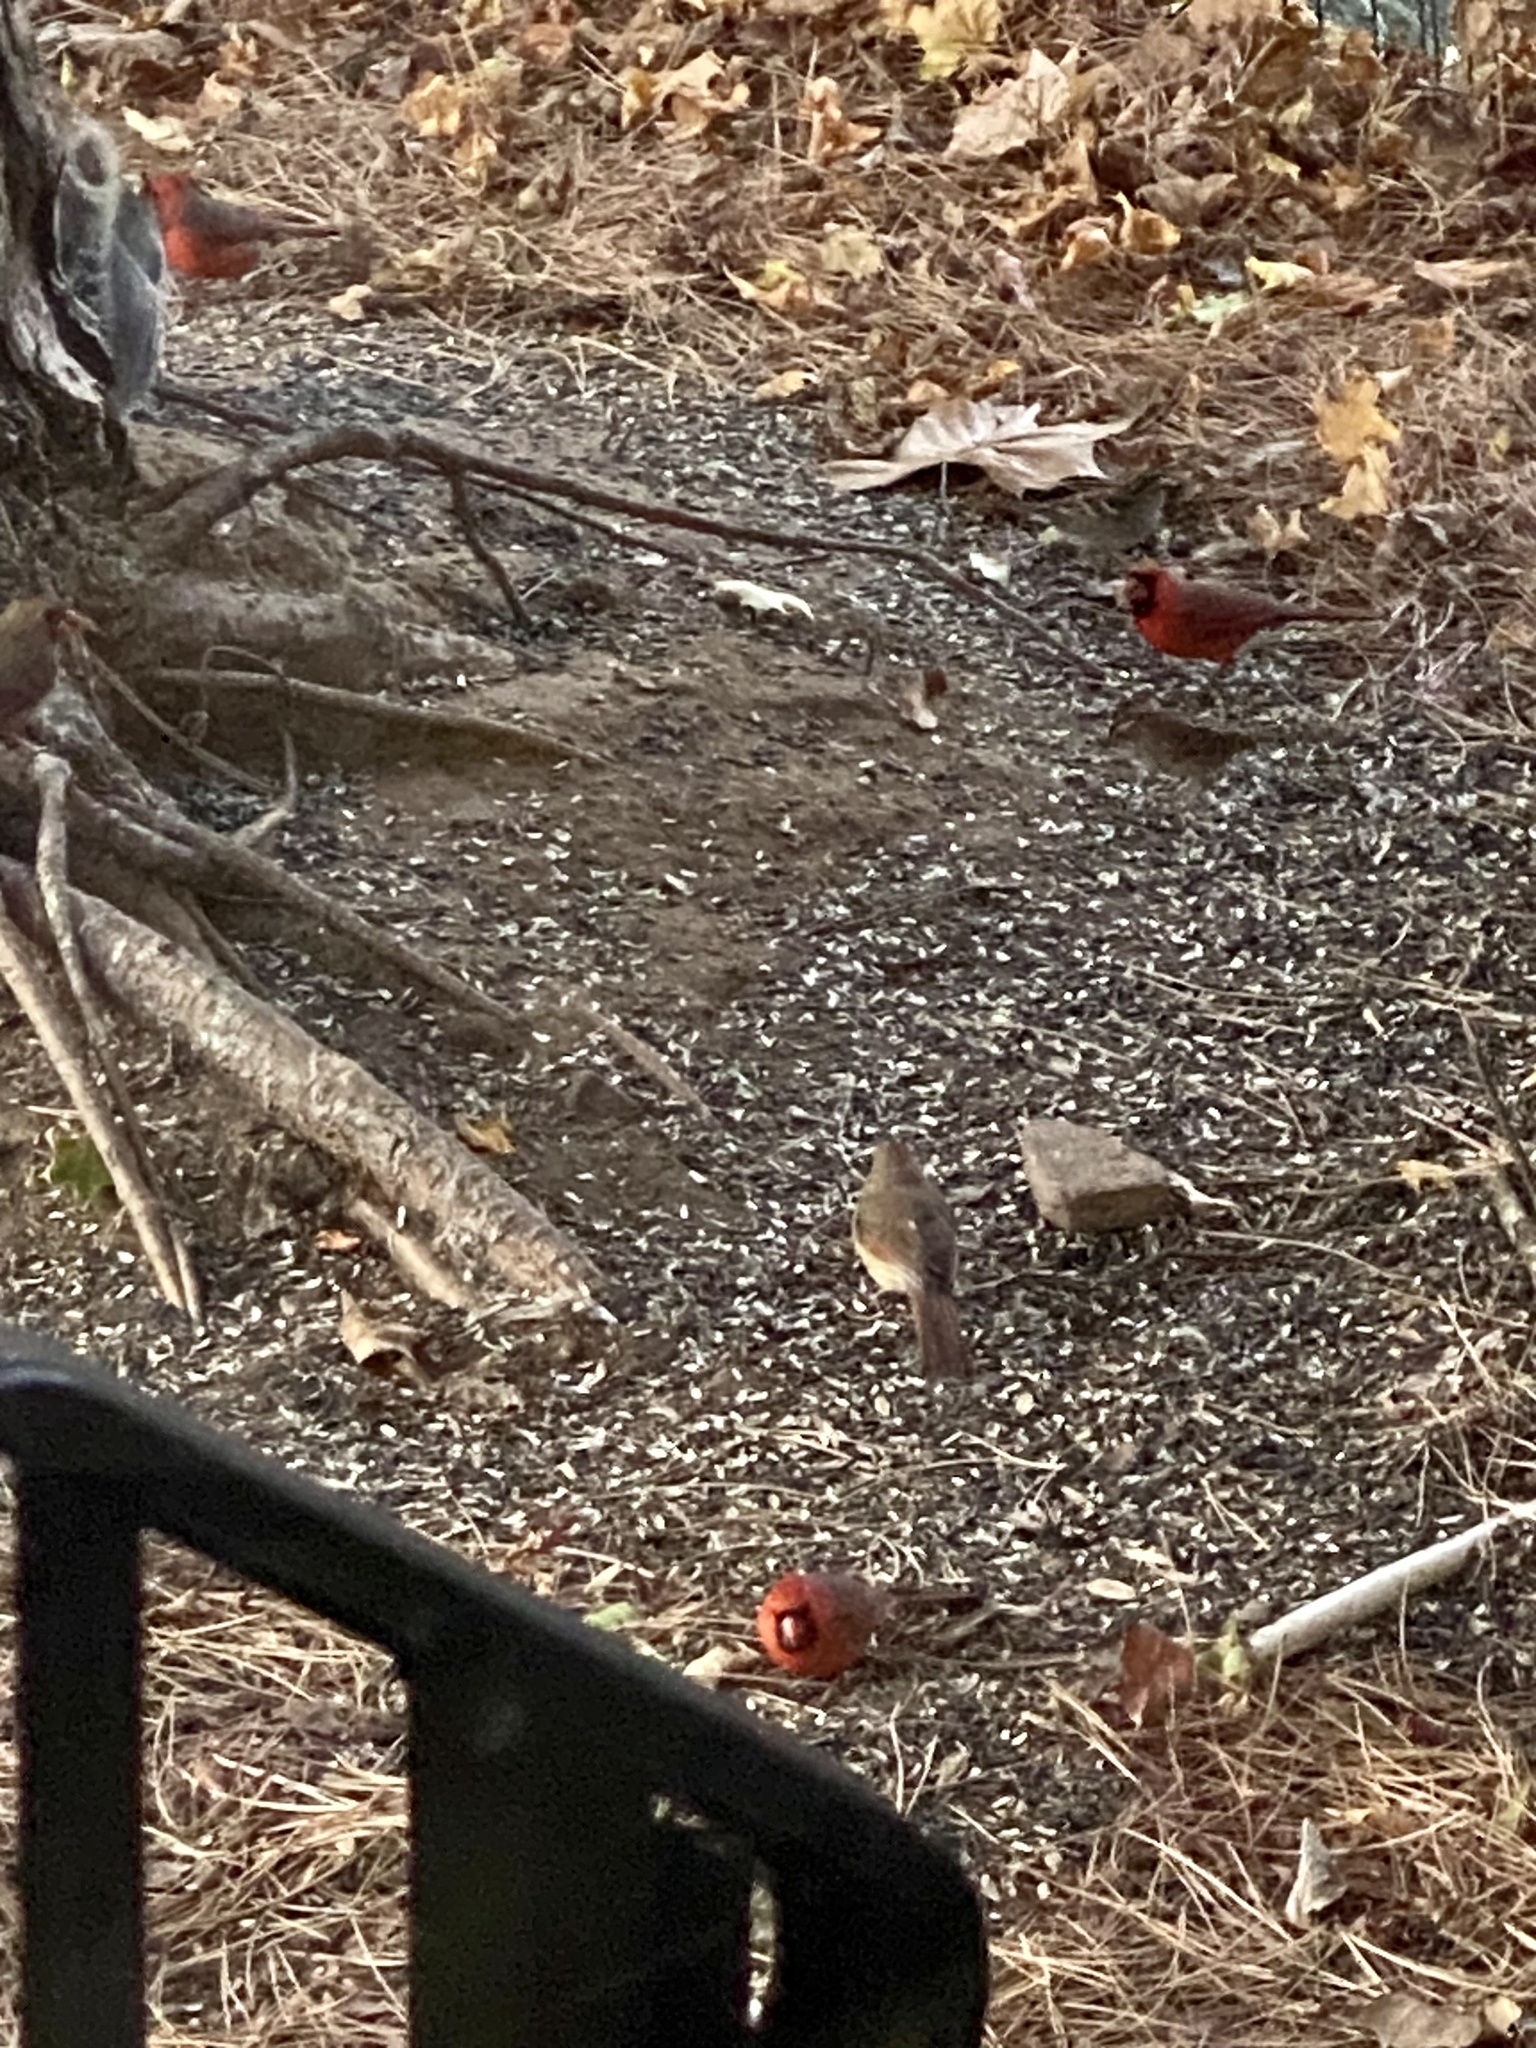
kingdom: Animalia
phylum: Chordata
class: Aves
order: Passeriformes
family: Cardinalidae
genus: Cardinalis
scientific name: Cardinalis cardinalis
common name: Northern cardinal
